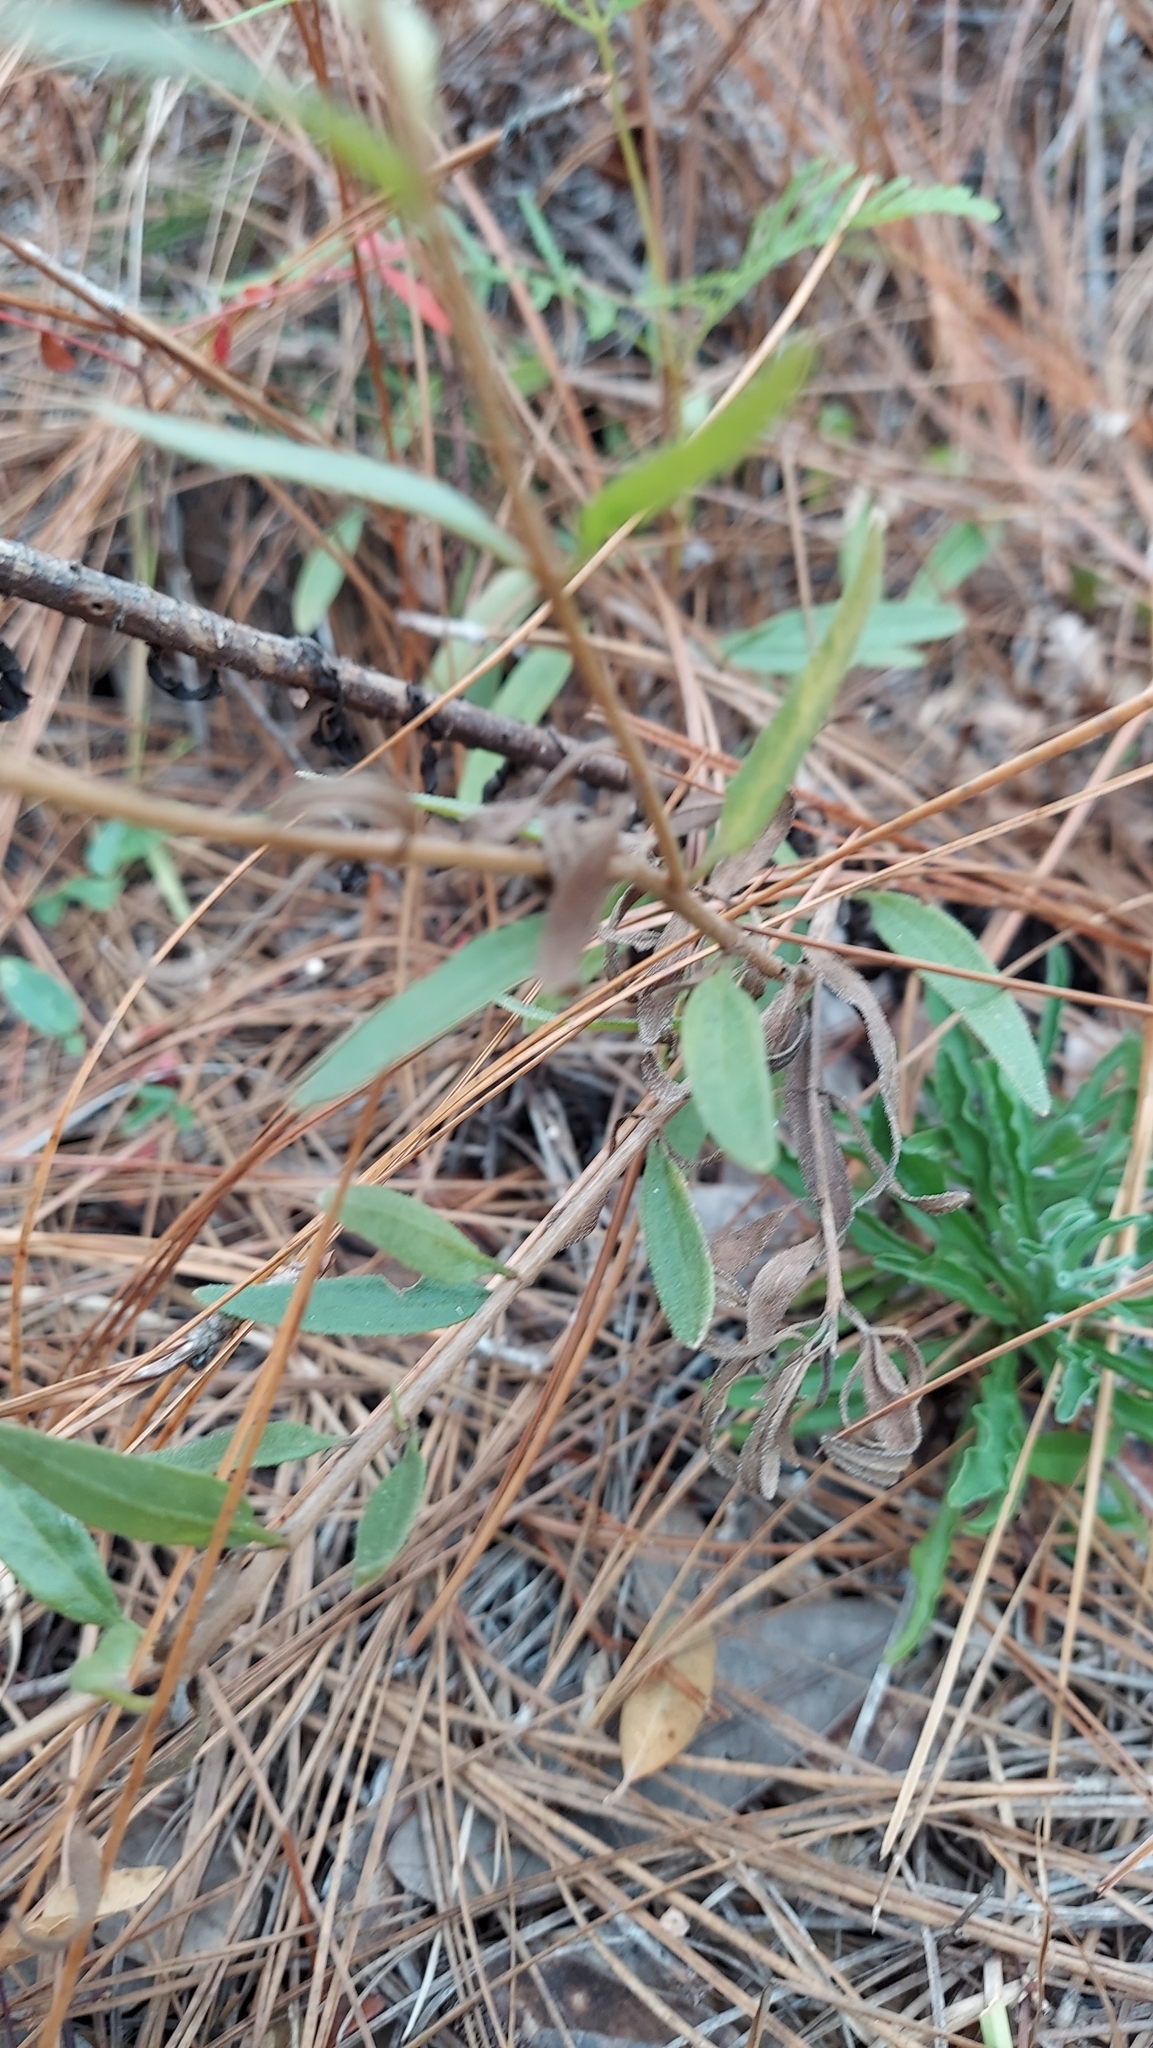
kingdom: Plantae
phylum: Tracheophyta
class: Magnoliopsida
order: Asterales
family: Asteraceae
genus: Palafoxia
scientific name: Palafoxia integrifolia
